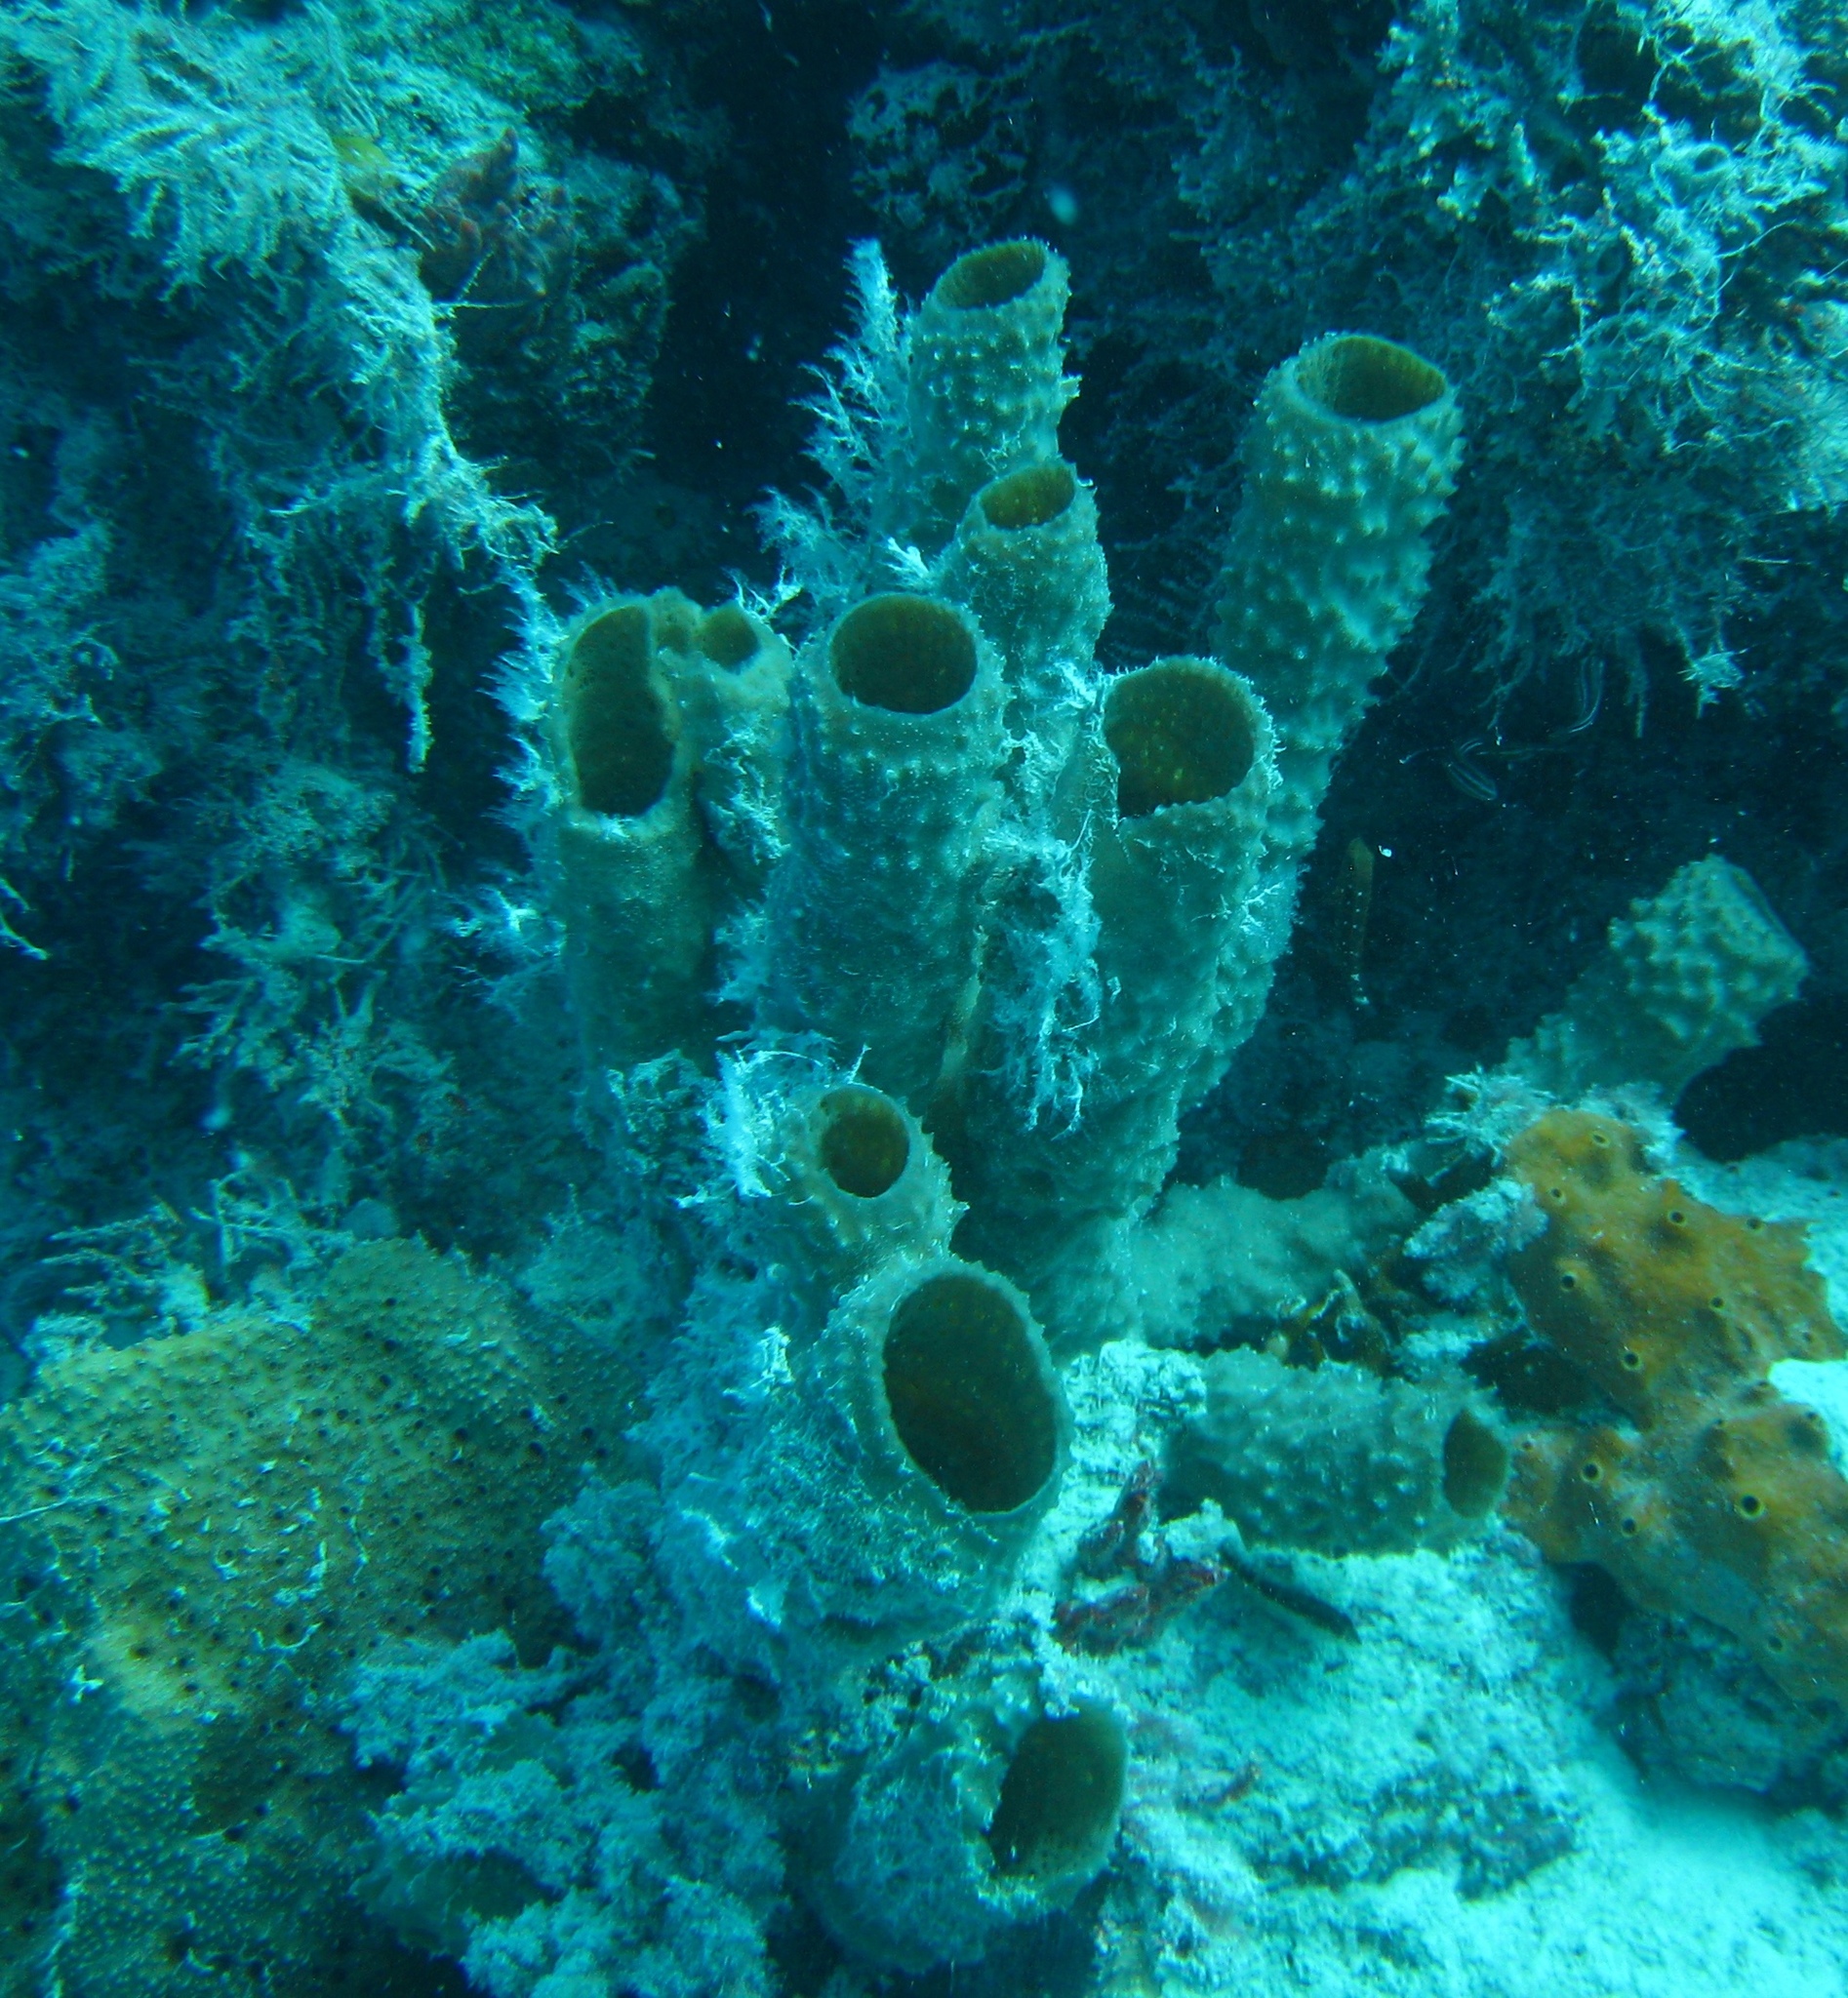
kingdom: Animalia
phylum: Porifera
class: Demospongiae
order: Haplosclerida
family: Callyspongiidae
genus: Callyspongia
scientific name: Callyspongia aculeata
